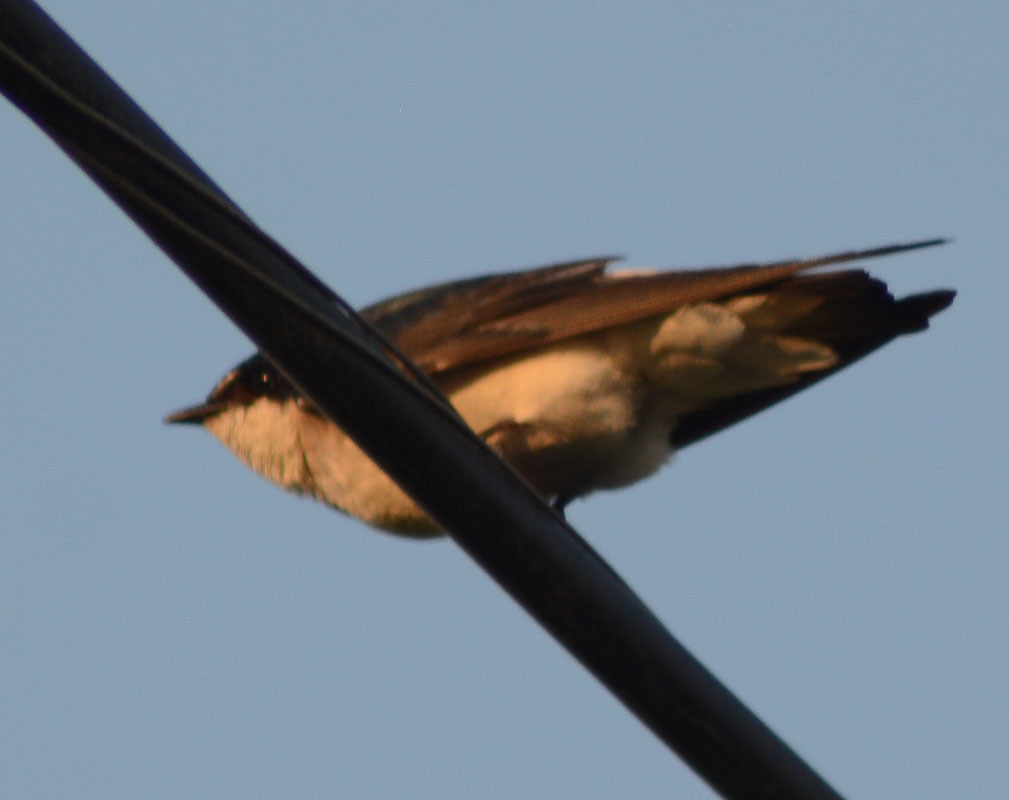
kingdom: Animalia
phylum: Chordata
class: Aves
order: Passeriformes
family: Hirundinidae
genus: Tachycineta
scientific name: Tachycineta albilinea
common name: Mangrove swallow
